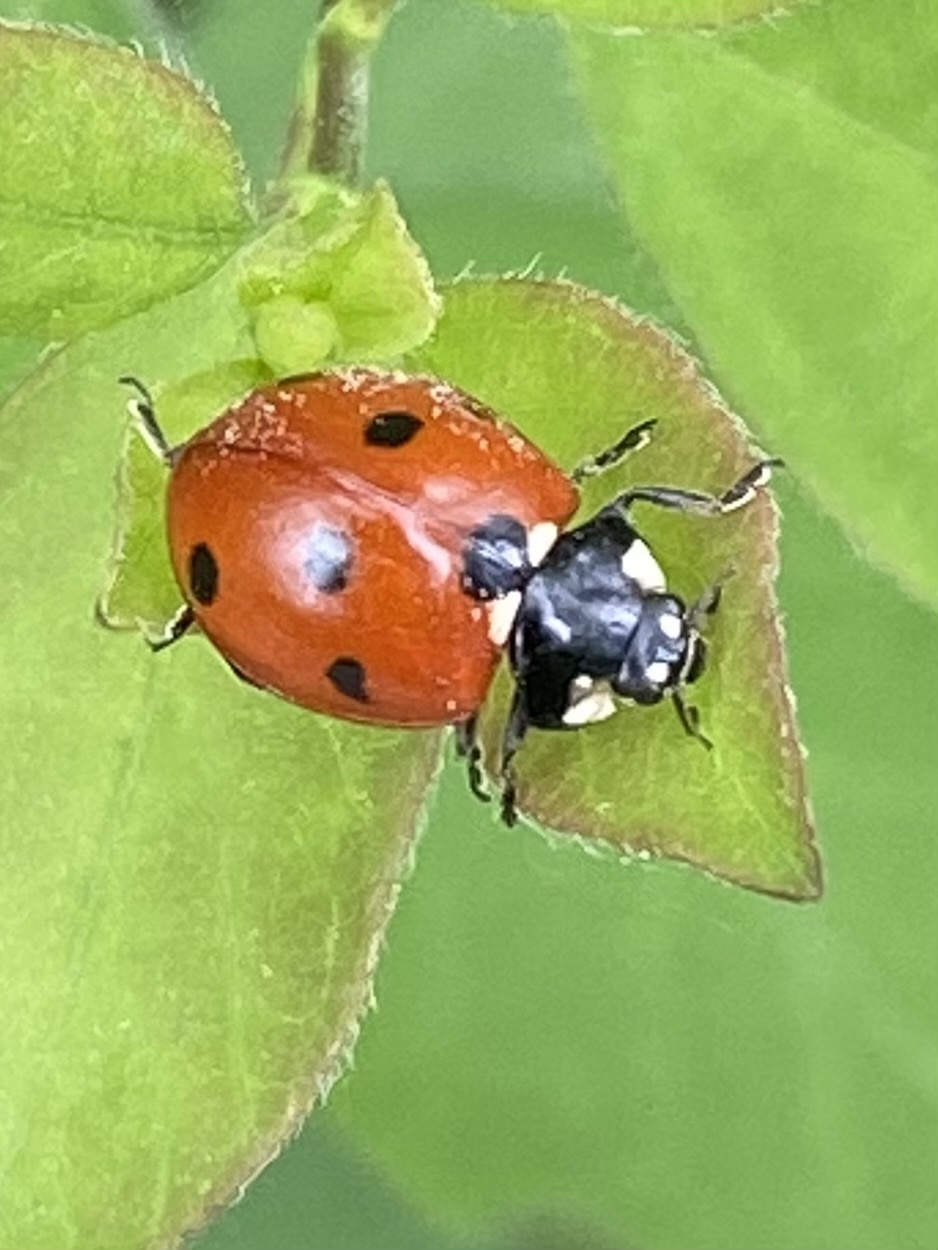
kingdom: Animalia
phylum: Arthropoda
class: Insecta
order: Coleoptera
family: Coccinellidae
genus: Coccinella
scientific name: Coccinella septempunctata
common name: Sevenspotted lady beetle
